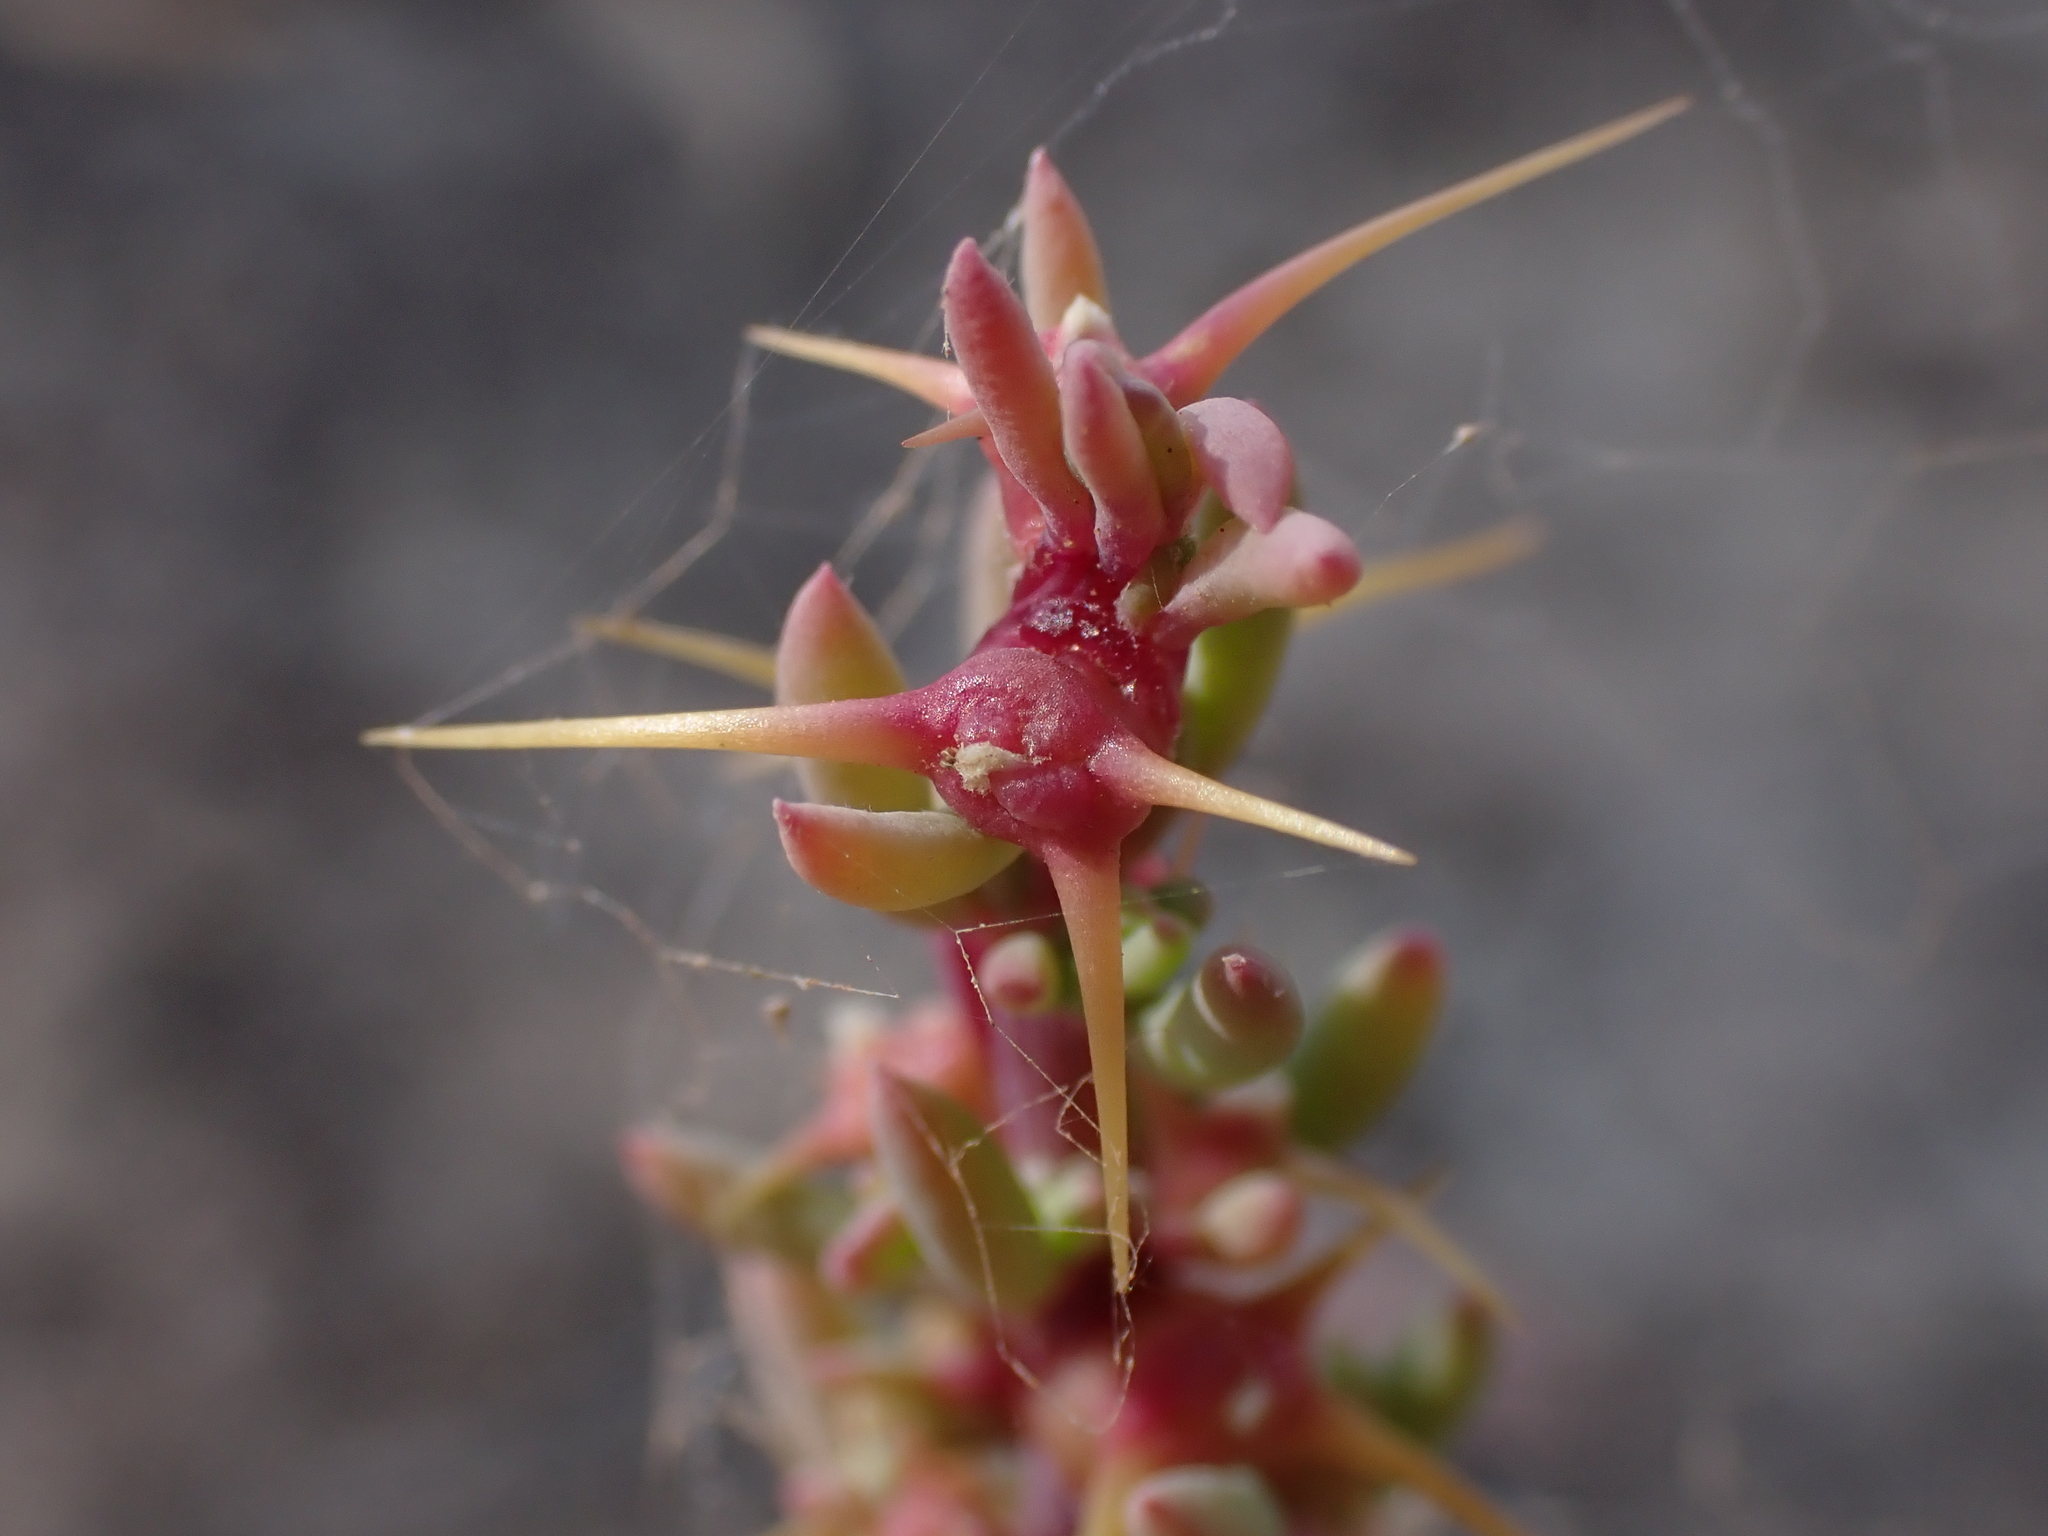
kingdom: Plantae
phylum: Tracheophyta
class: Magnoliopsida
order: Caryophyllales
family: Amaranthaceae
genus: Sclerolaena
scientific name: Sclerolaena tricuspis
